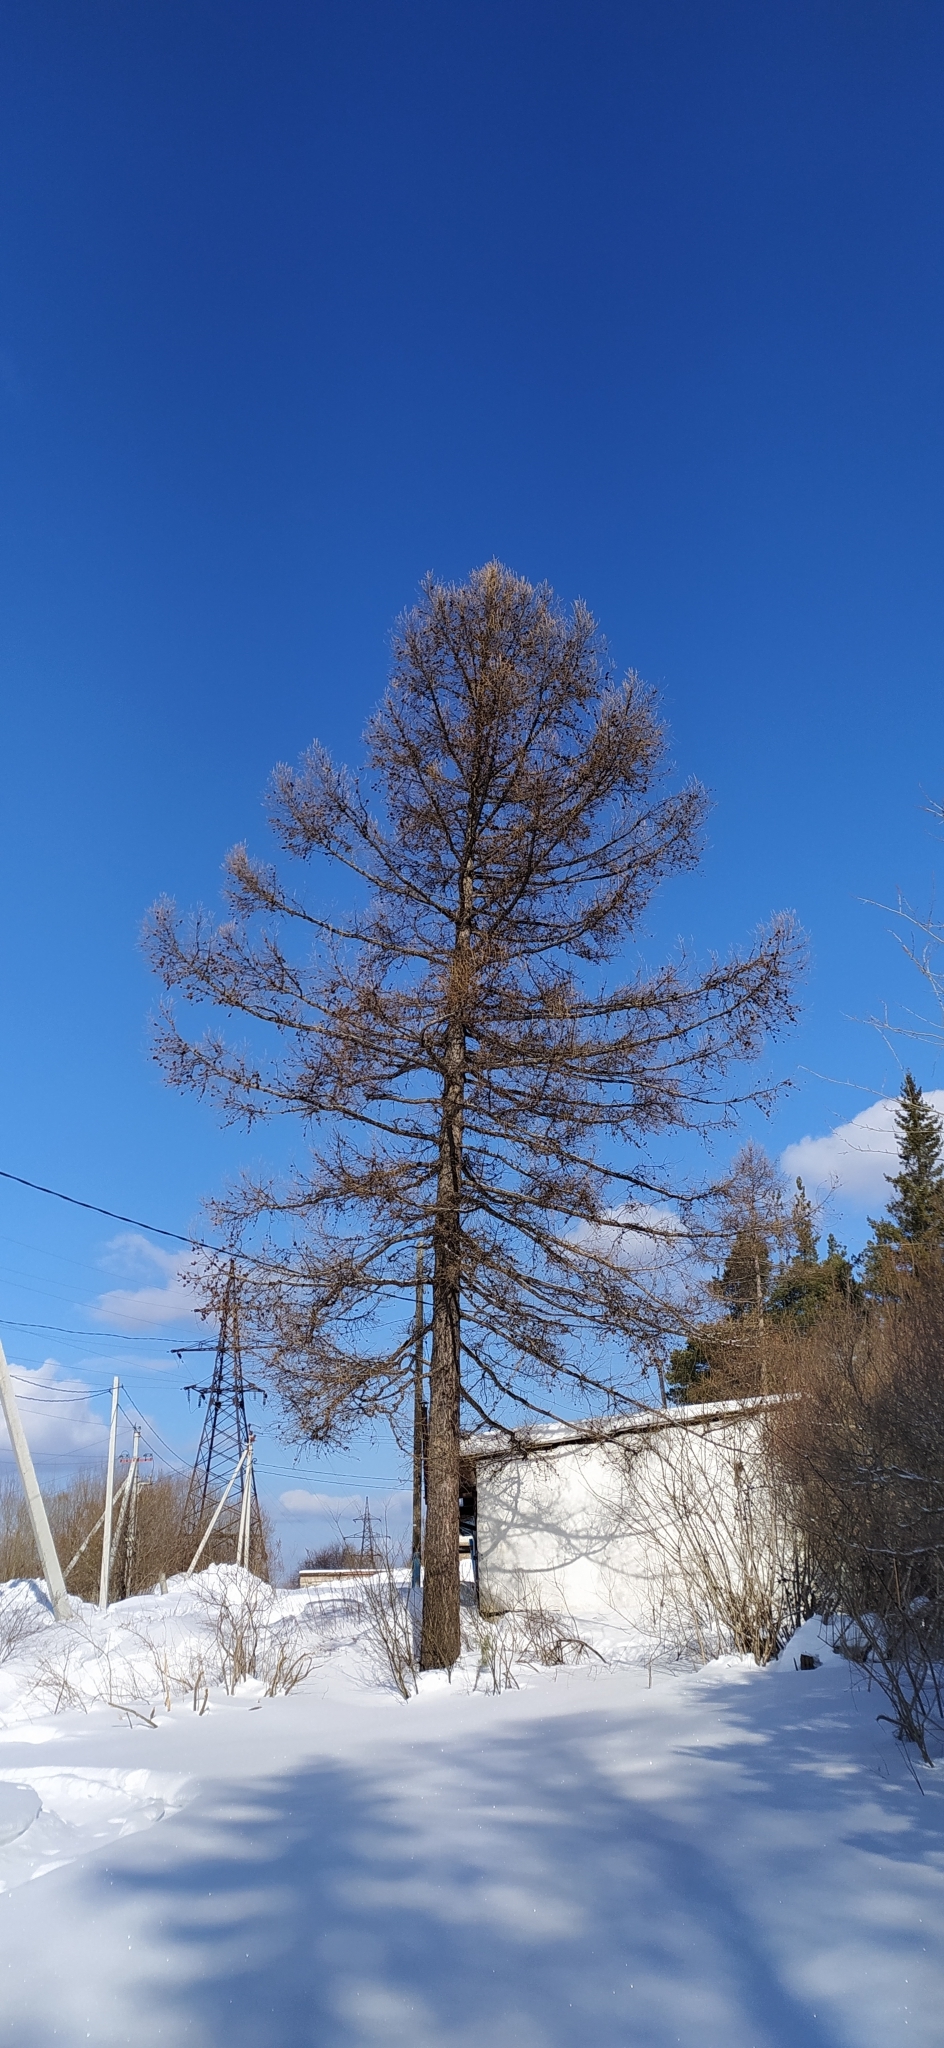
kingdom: Plantae
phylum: Tracheophyta
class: Pinopsida
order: Pinales
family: Pinaceae
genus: Larix
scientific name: Larix sibirica
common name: Siberian larch
